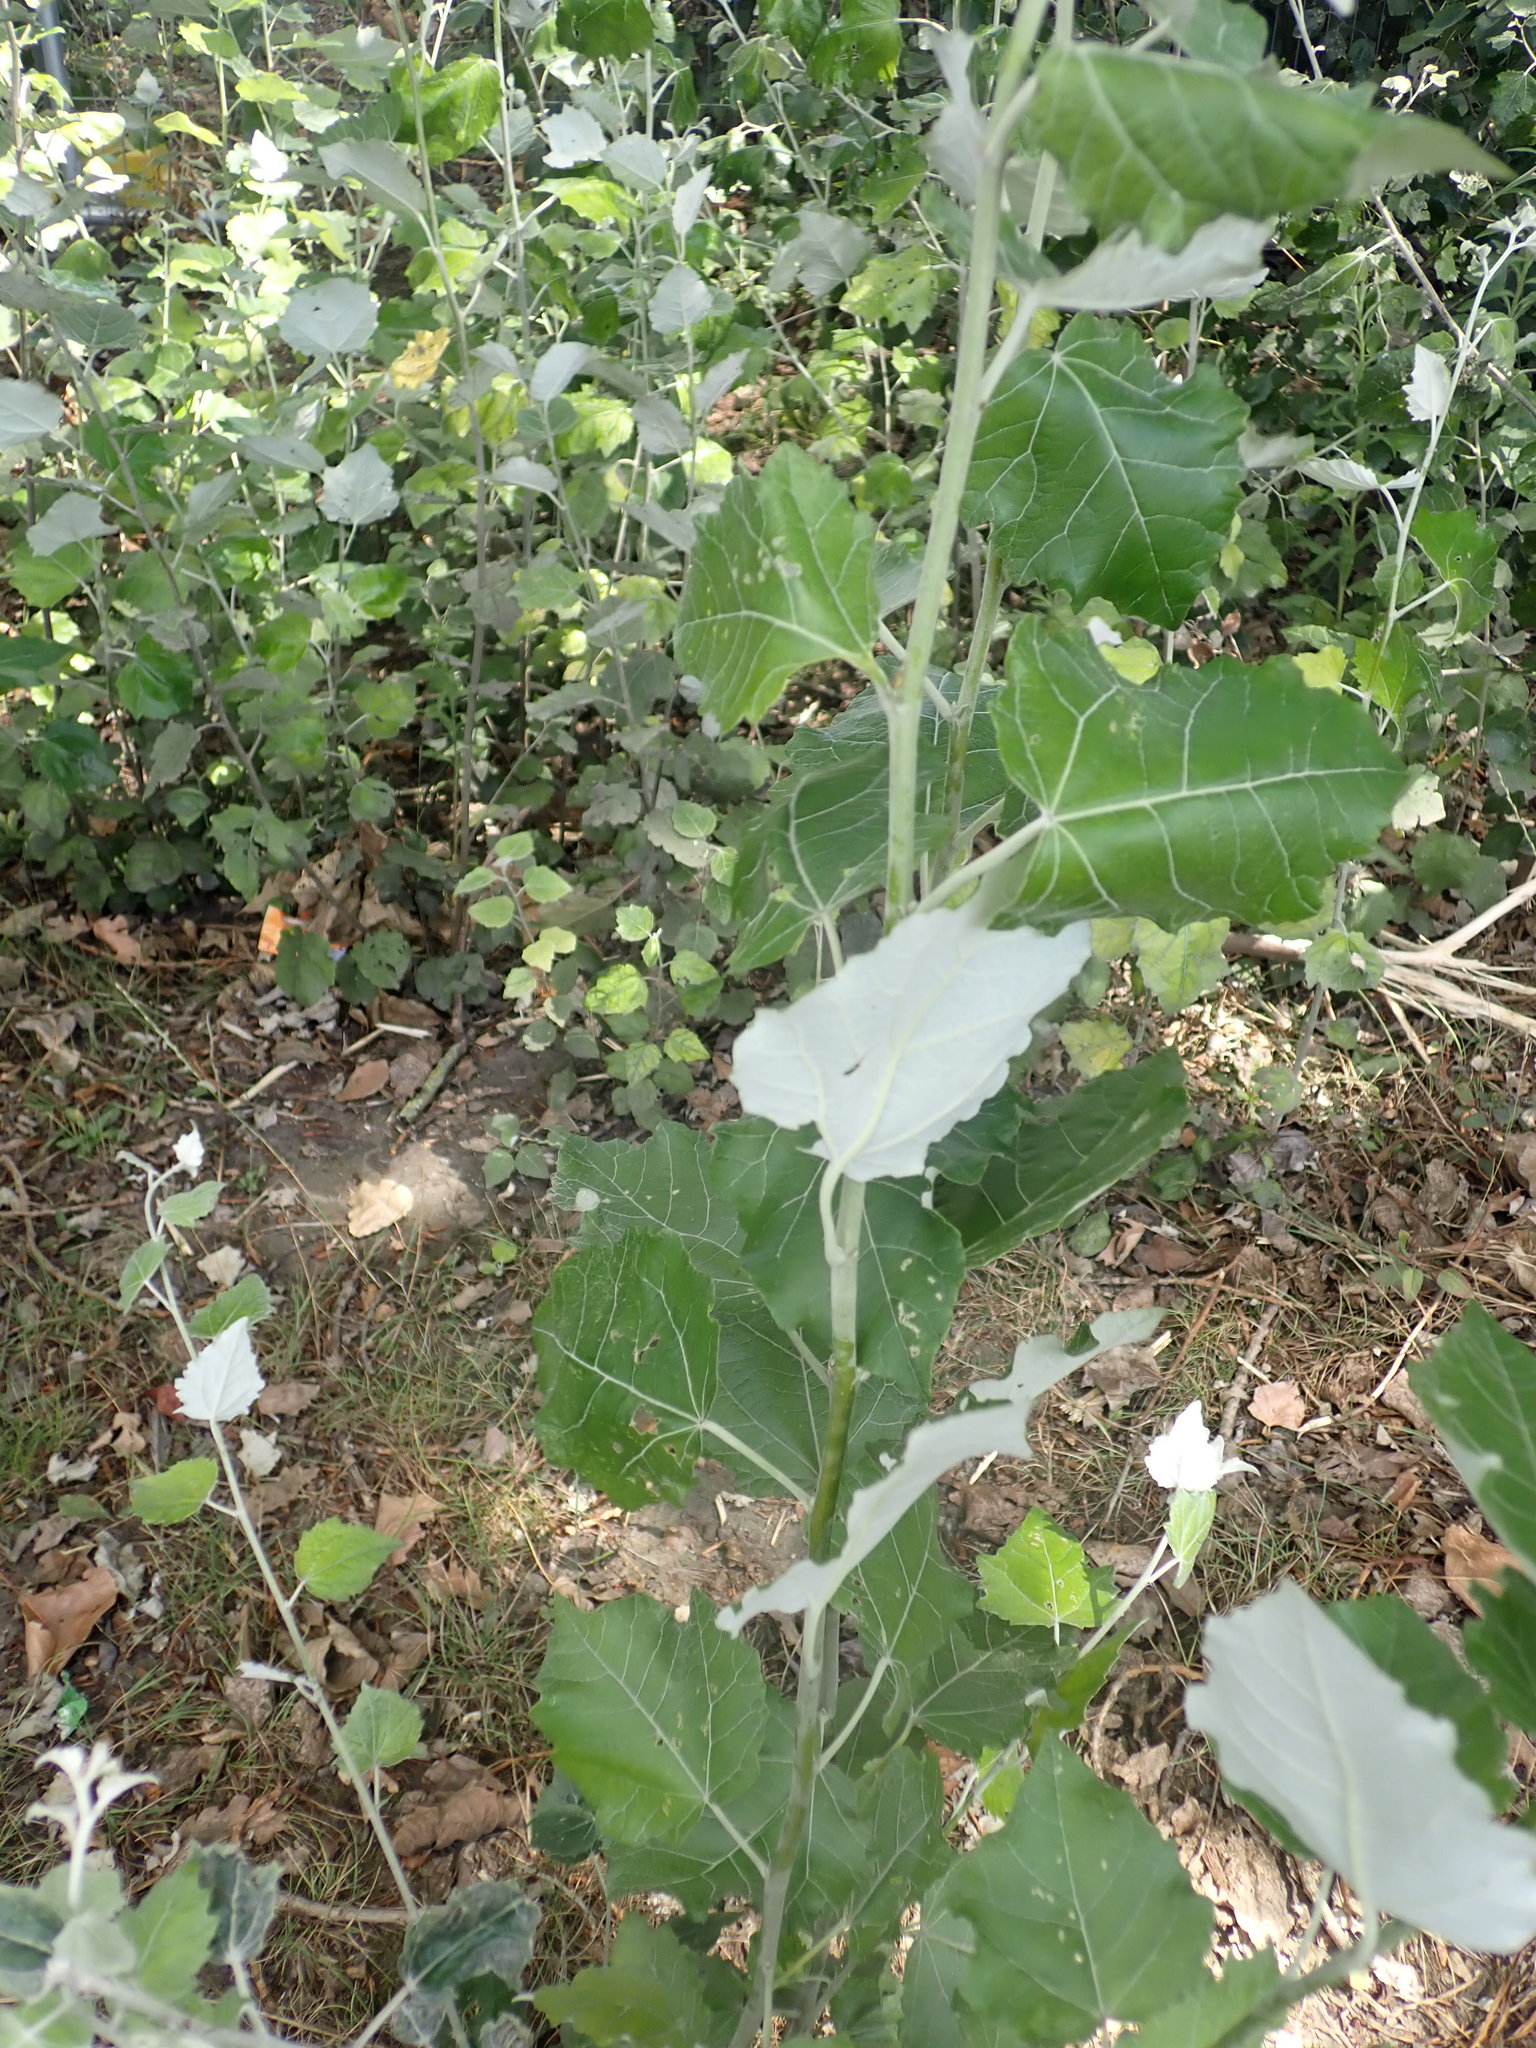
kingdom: Plantae
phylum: Tracheophyta
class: Magnoliopsida
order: Malpighiales
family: Salicaceae
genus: Populus
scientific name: Populus alba
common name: White poplar
